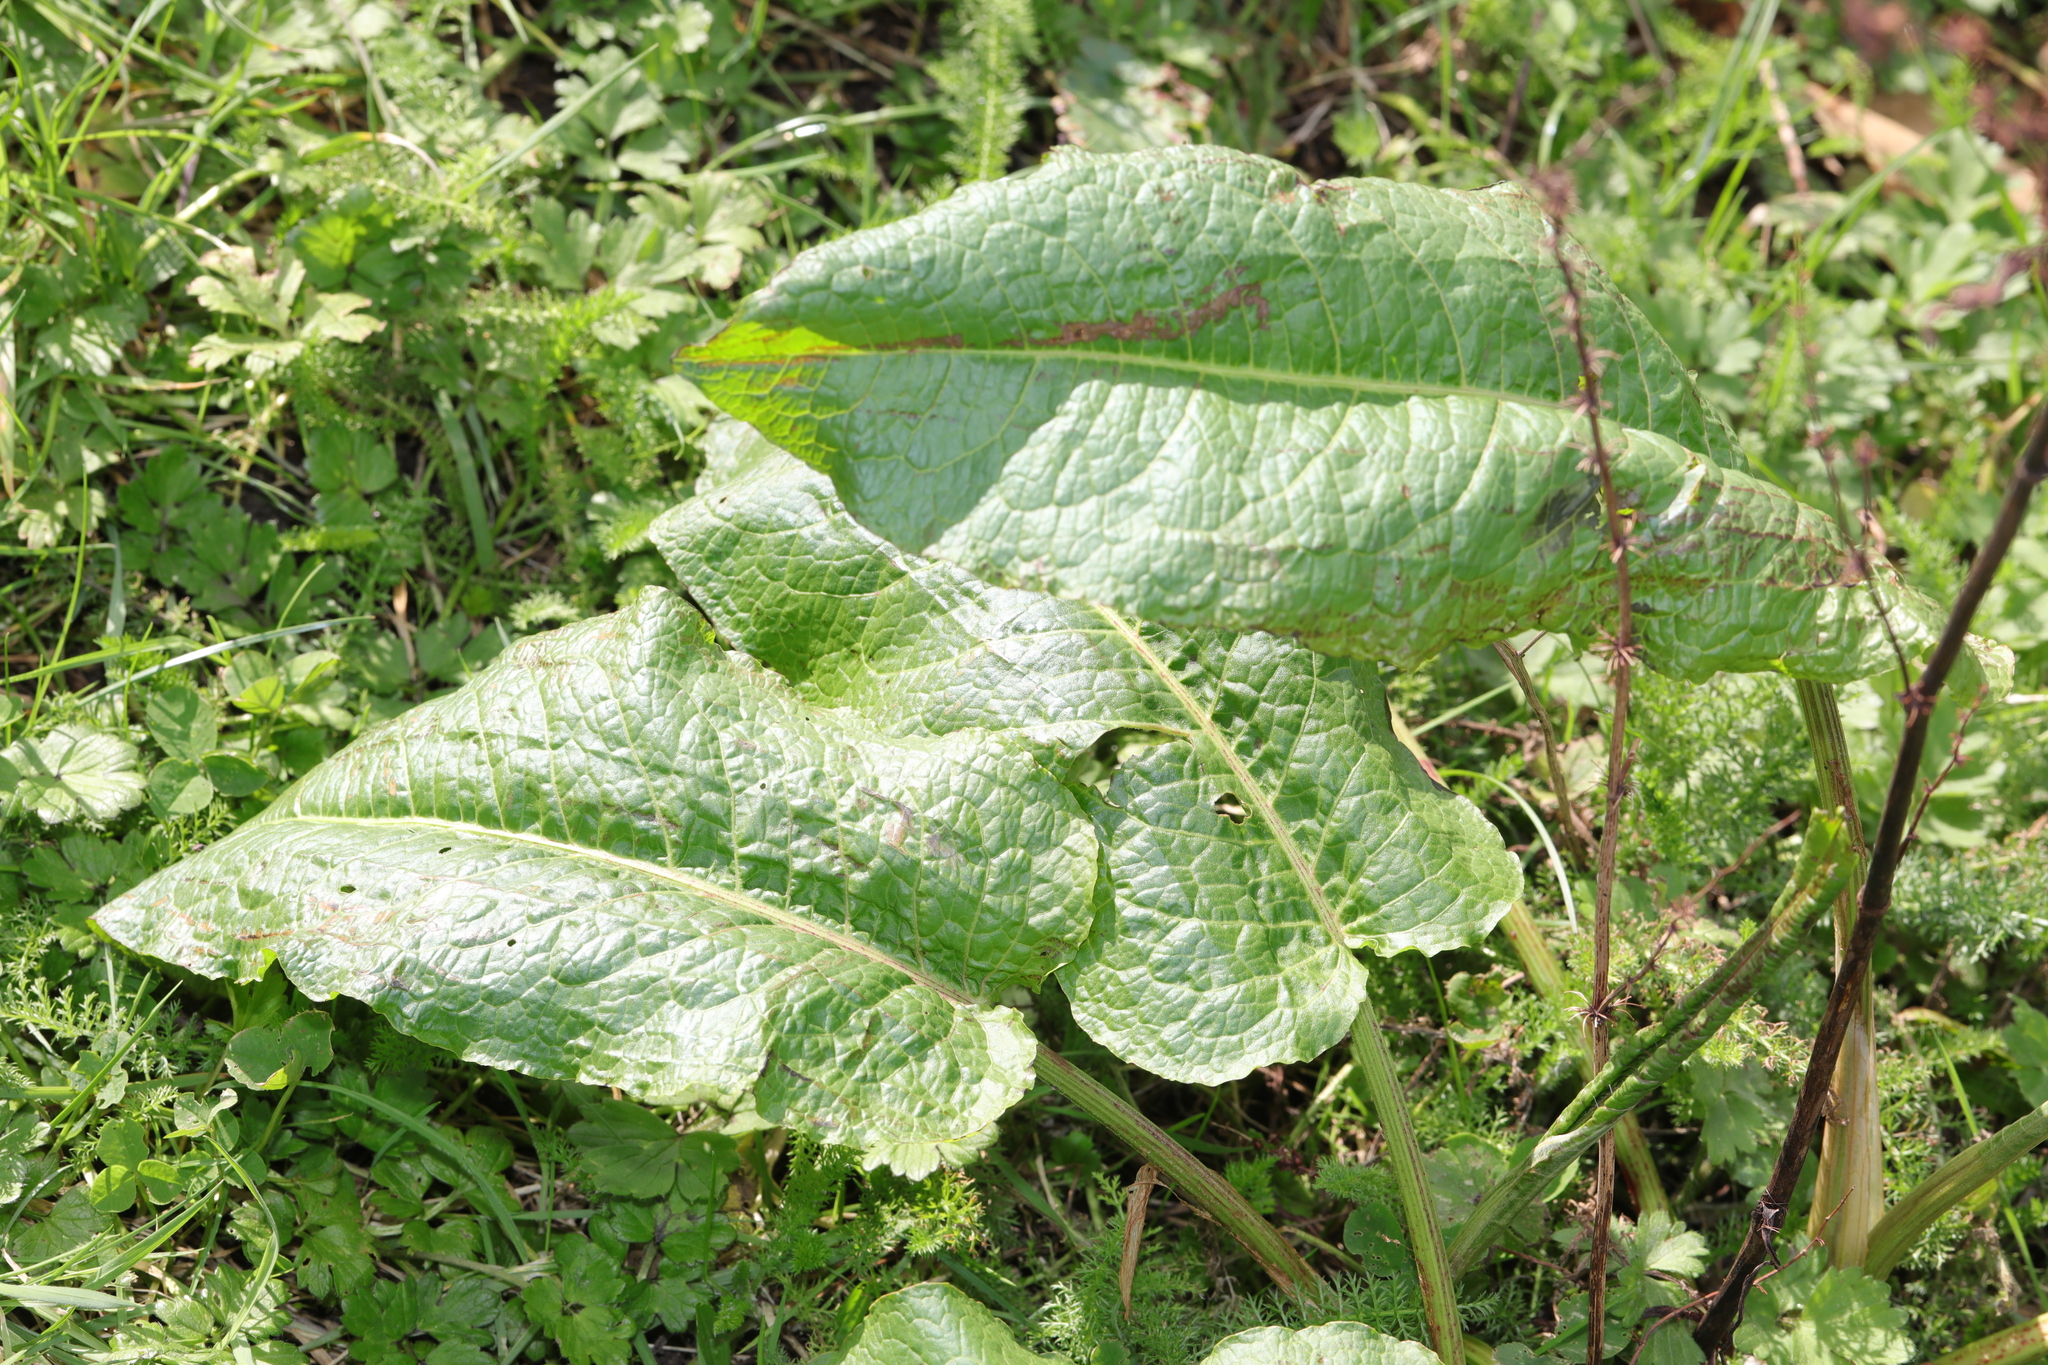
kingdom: Plantae
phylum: Tracheophyta
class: Magnoliopsida
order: Caryophyllales
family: Polygonaceae
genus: Rumex
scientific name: Rumex obtusifolius
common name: Bitter dock
